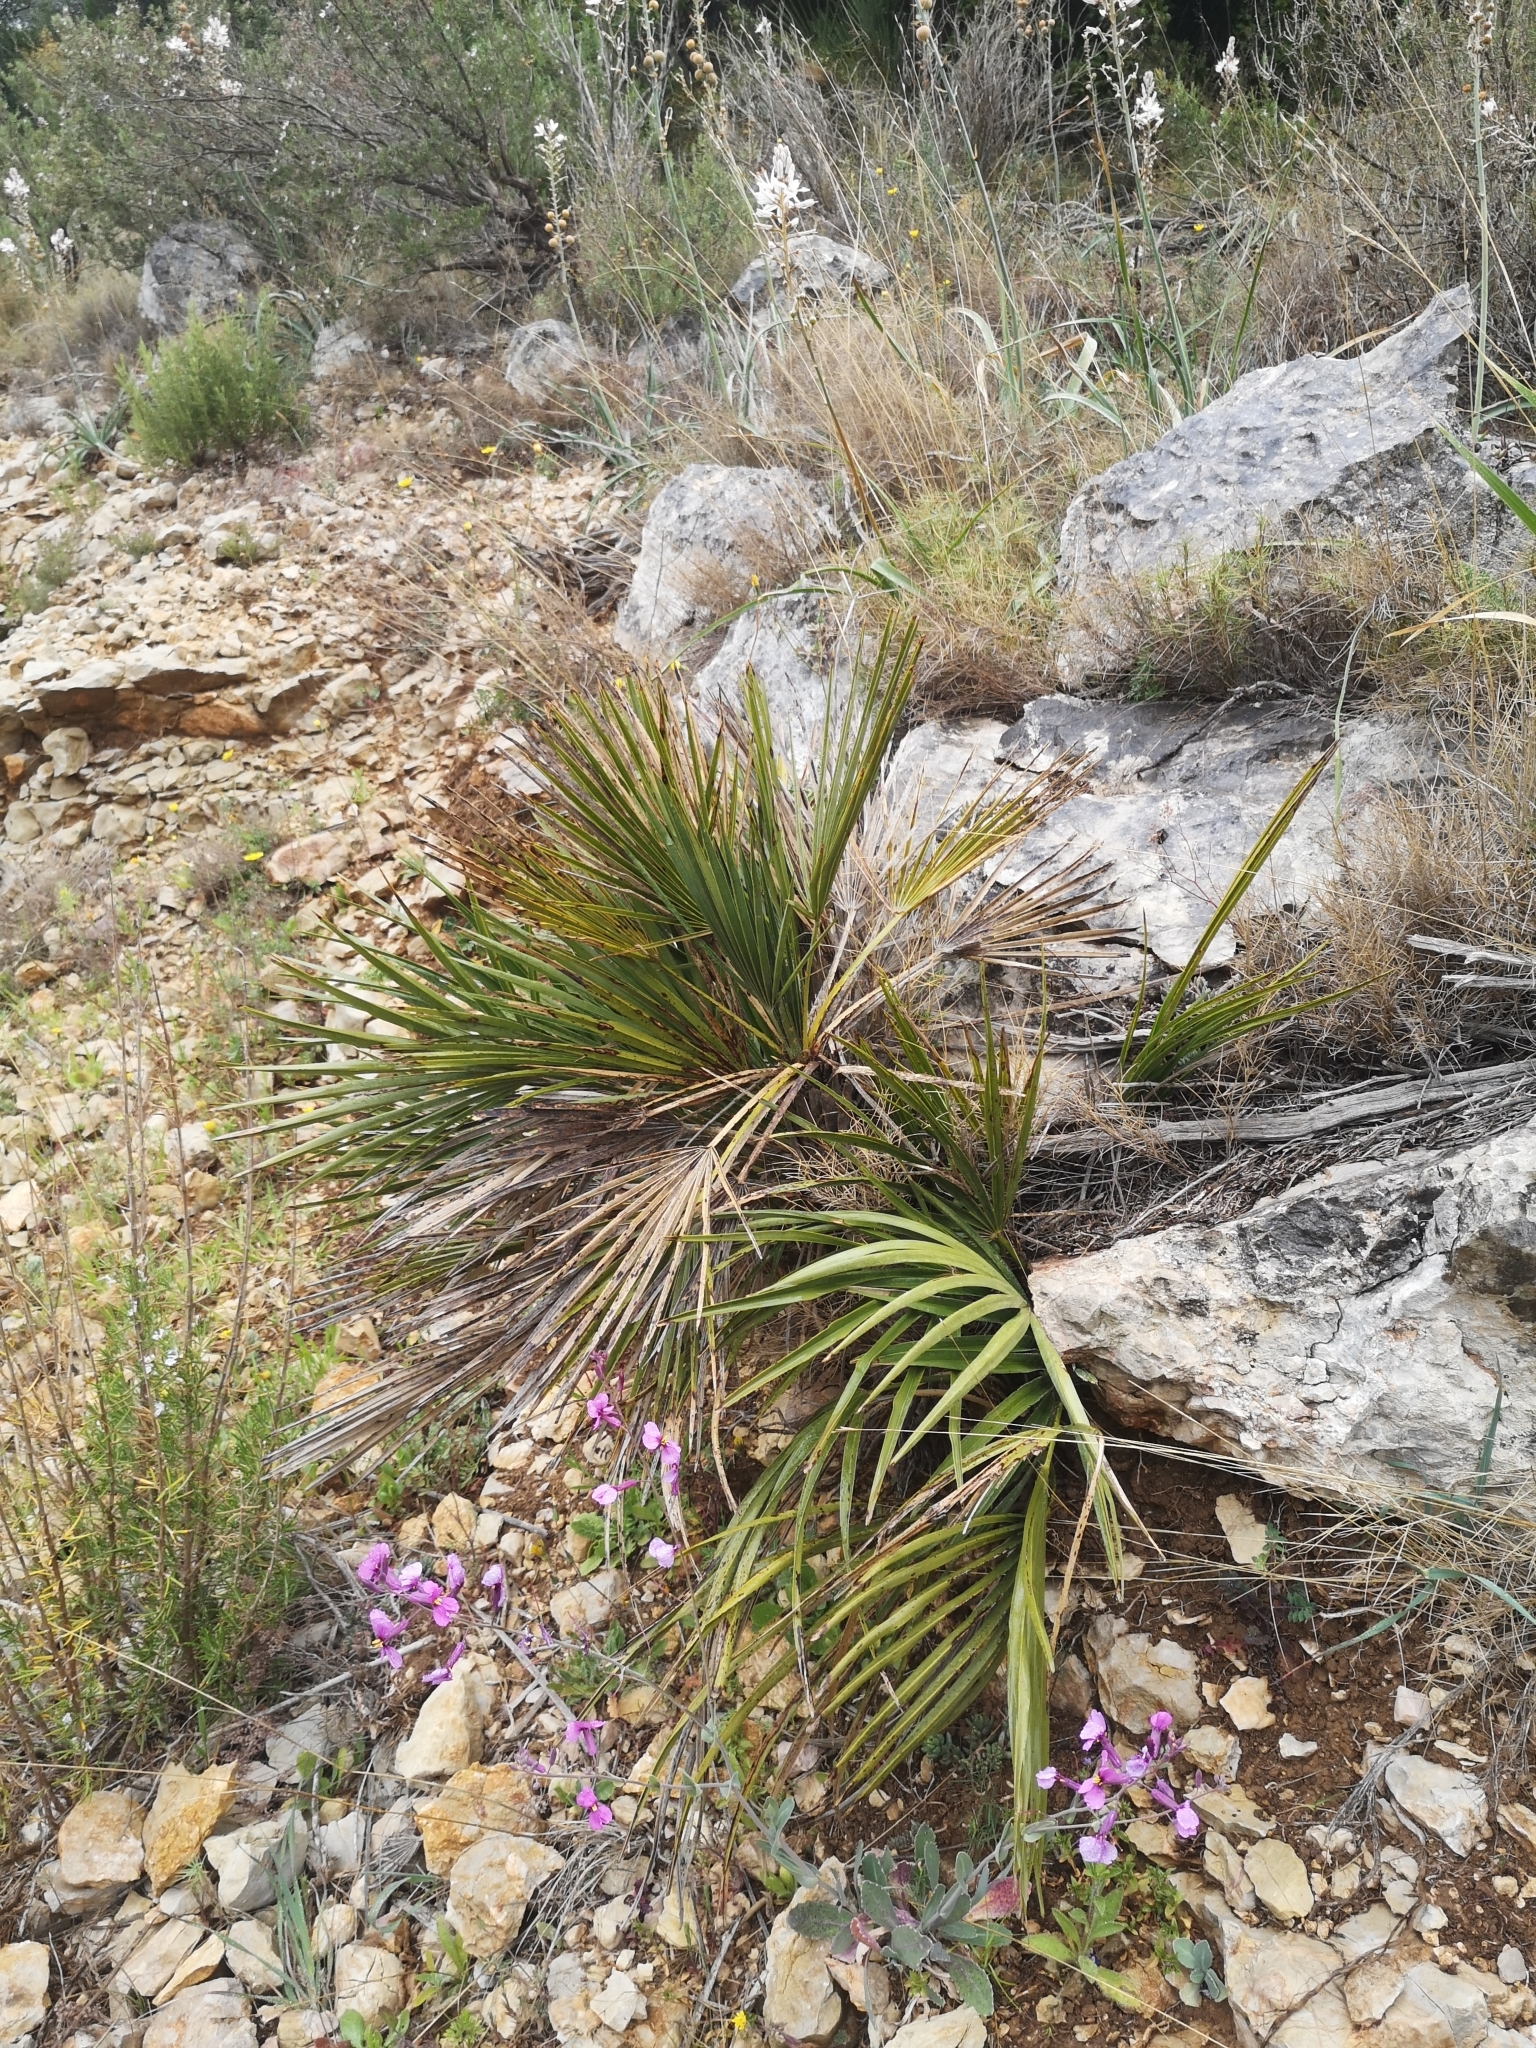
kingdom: Plantae
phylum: Tracheophyta
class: Liliopsida
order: Arecales
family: Arecaceae
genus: Chamaerops
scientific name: Chamaerops humilis
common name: Dwarf fan palm
